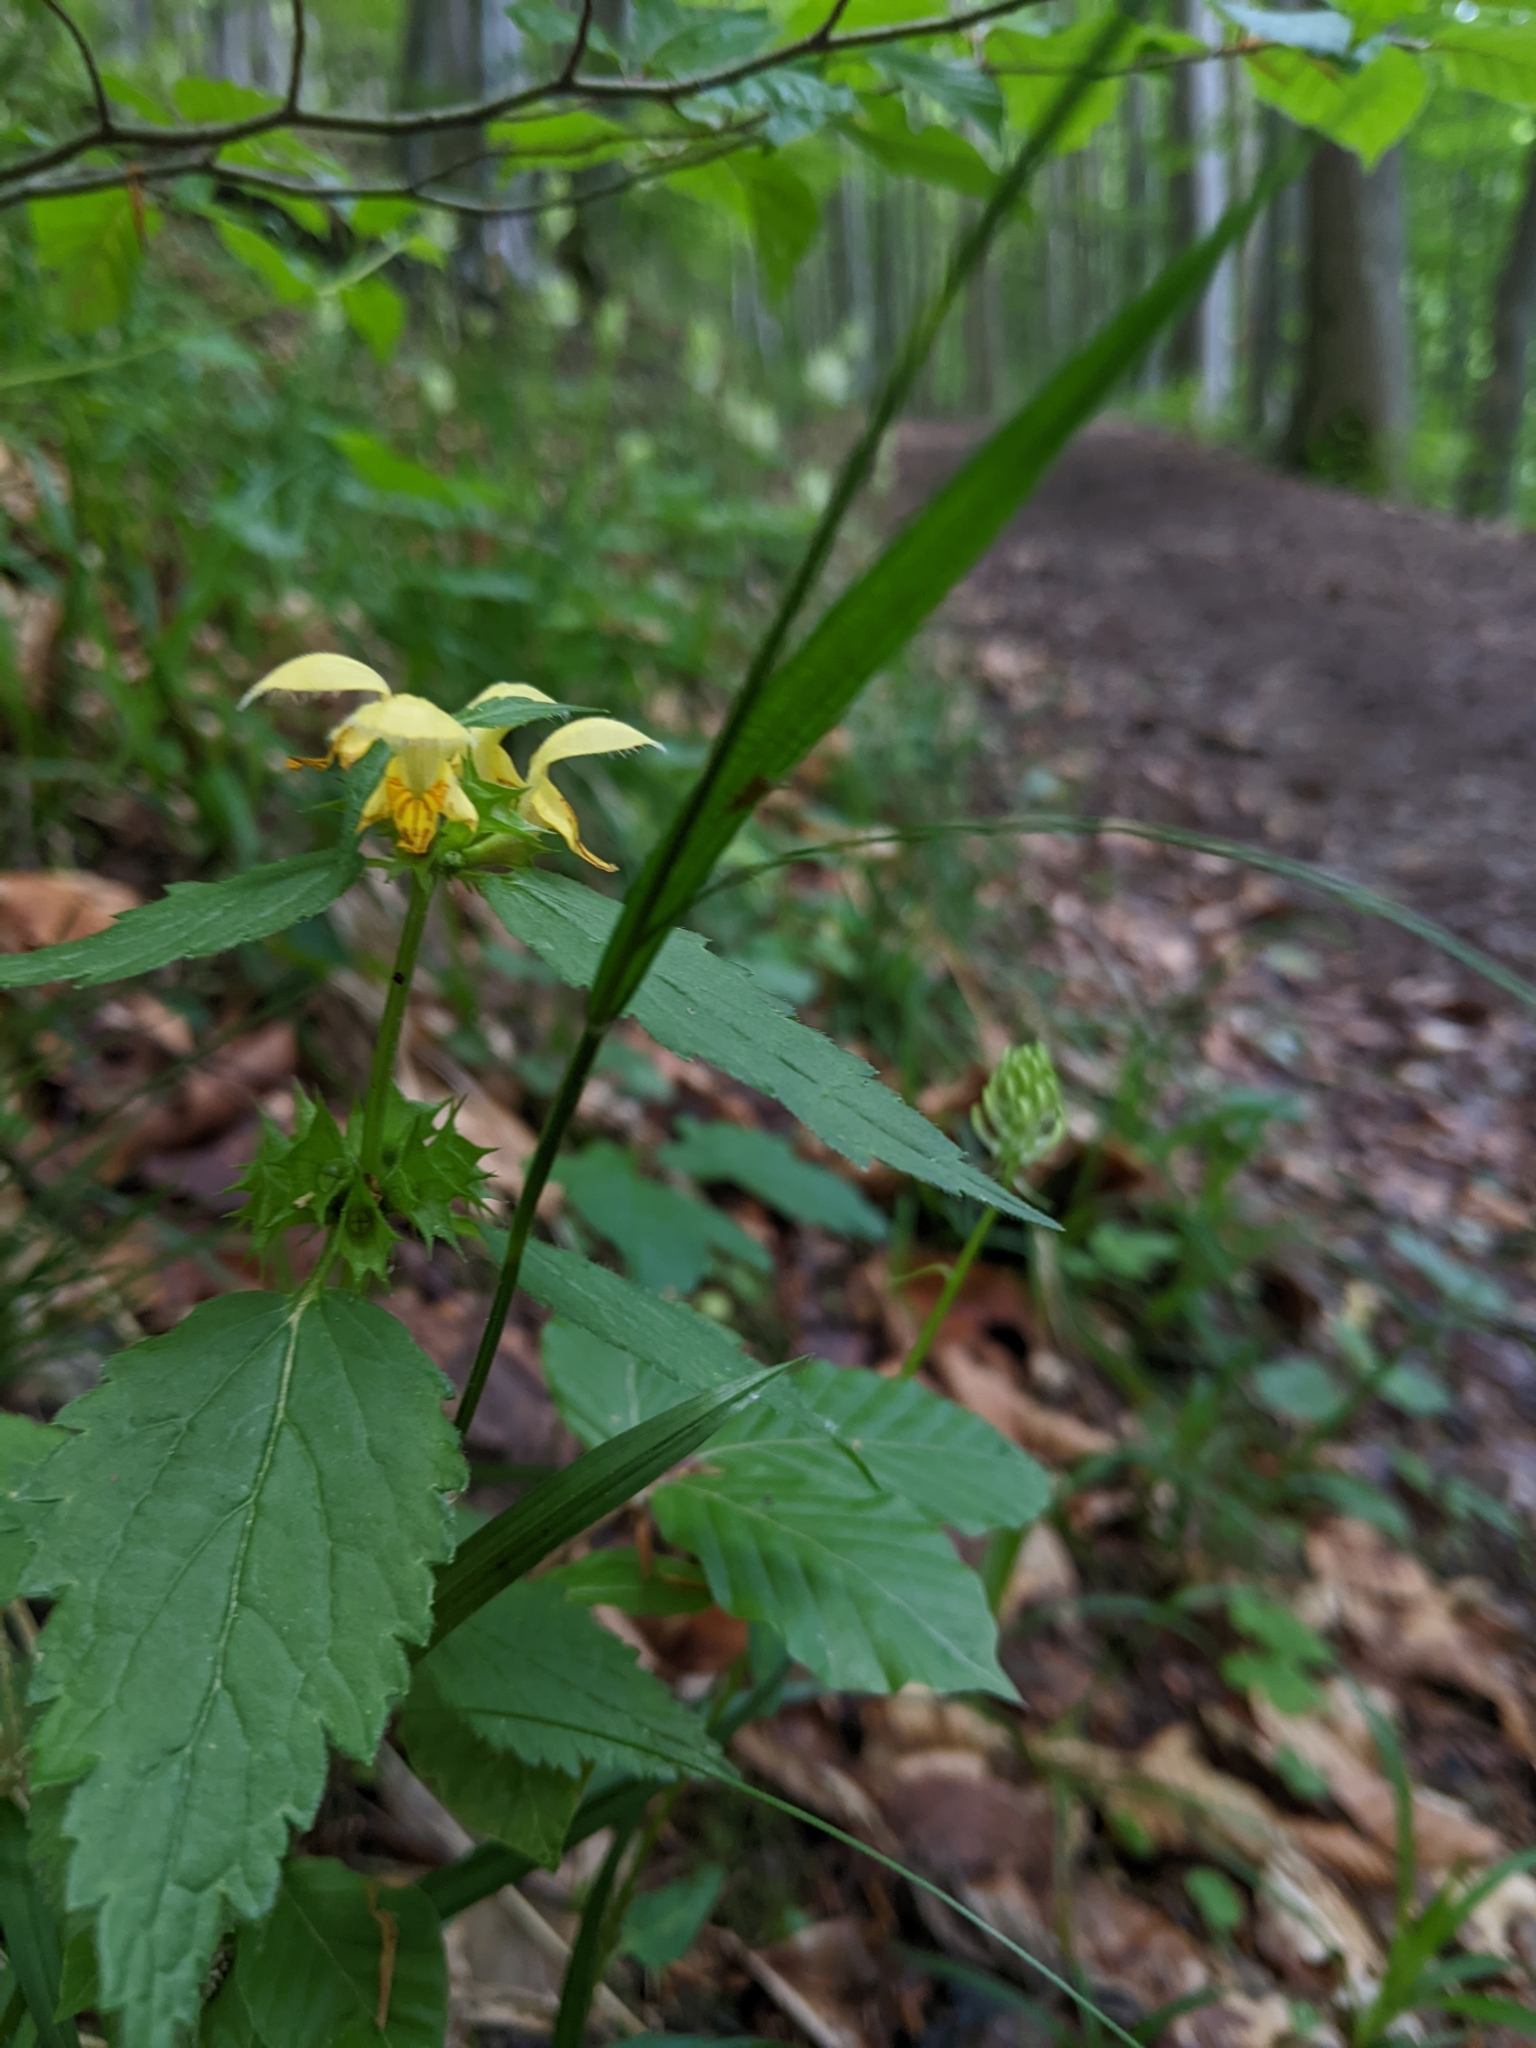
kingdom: Plantae
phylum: Tracheophyta
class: Magnoliopsida
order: Lamiales
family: Lamiaceae
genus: Lamium
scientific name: Lamium galeobdolon
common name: Yellow archangel
